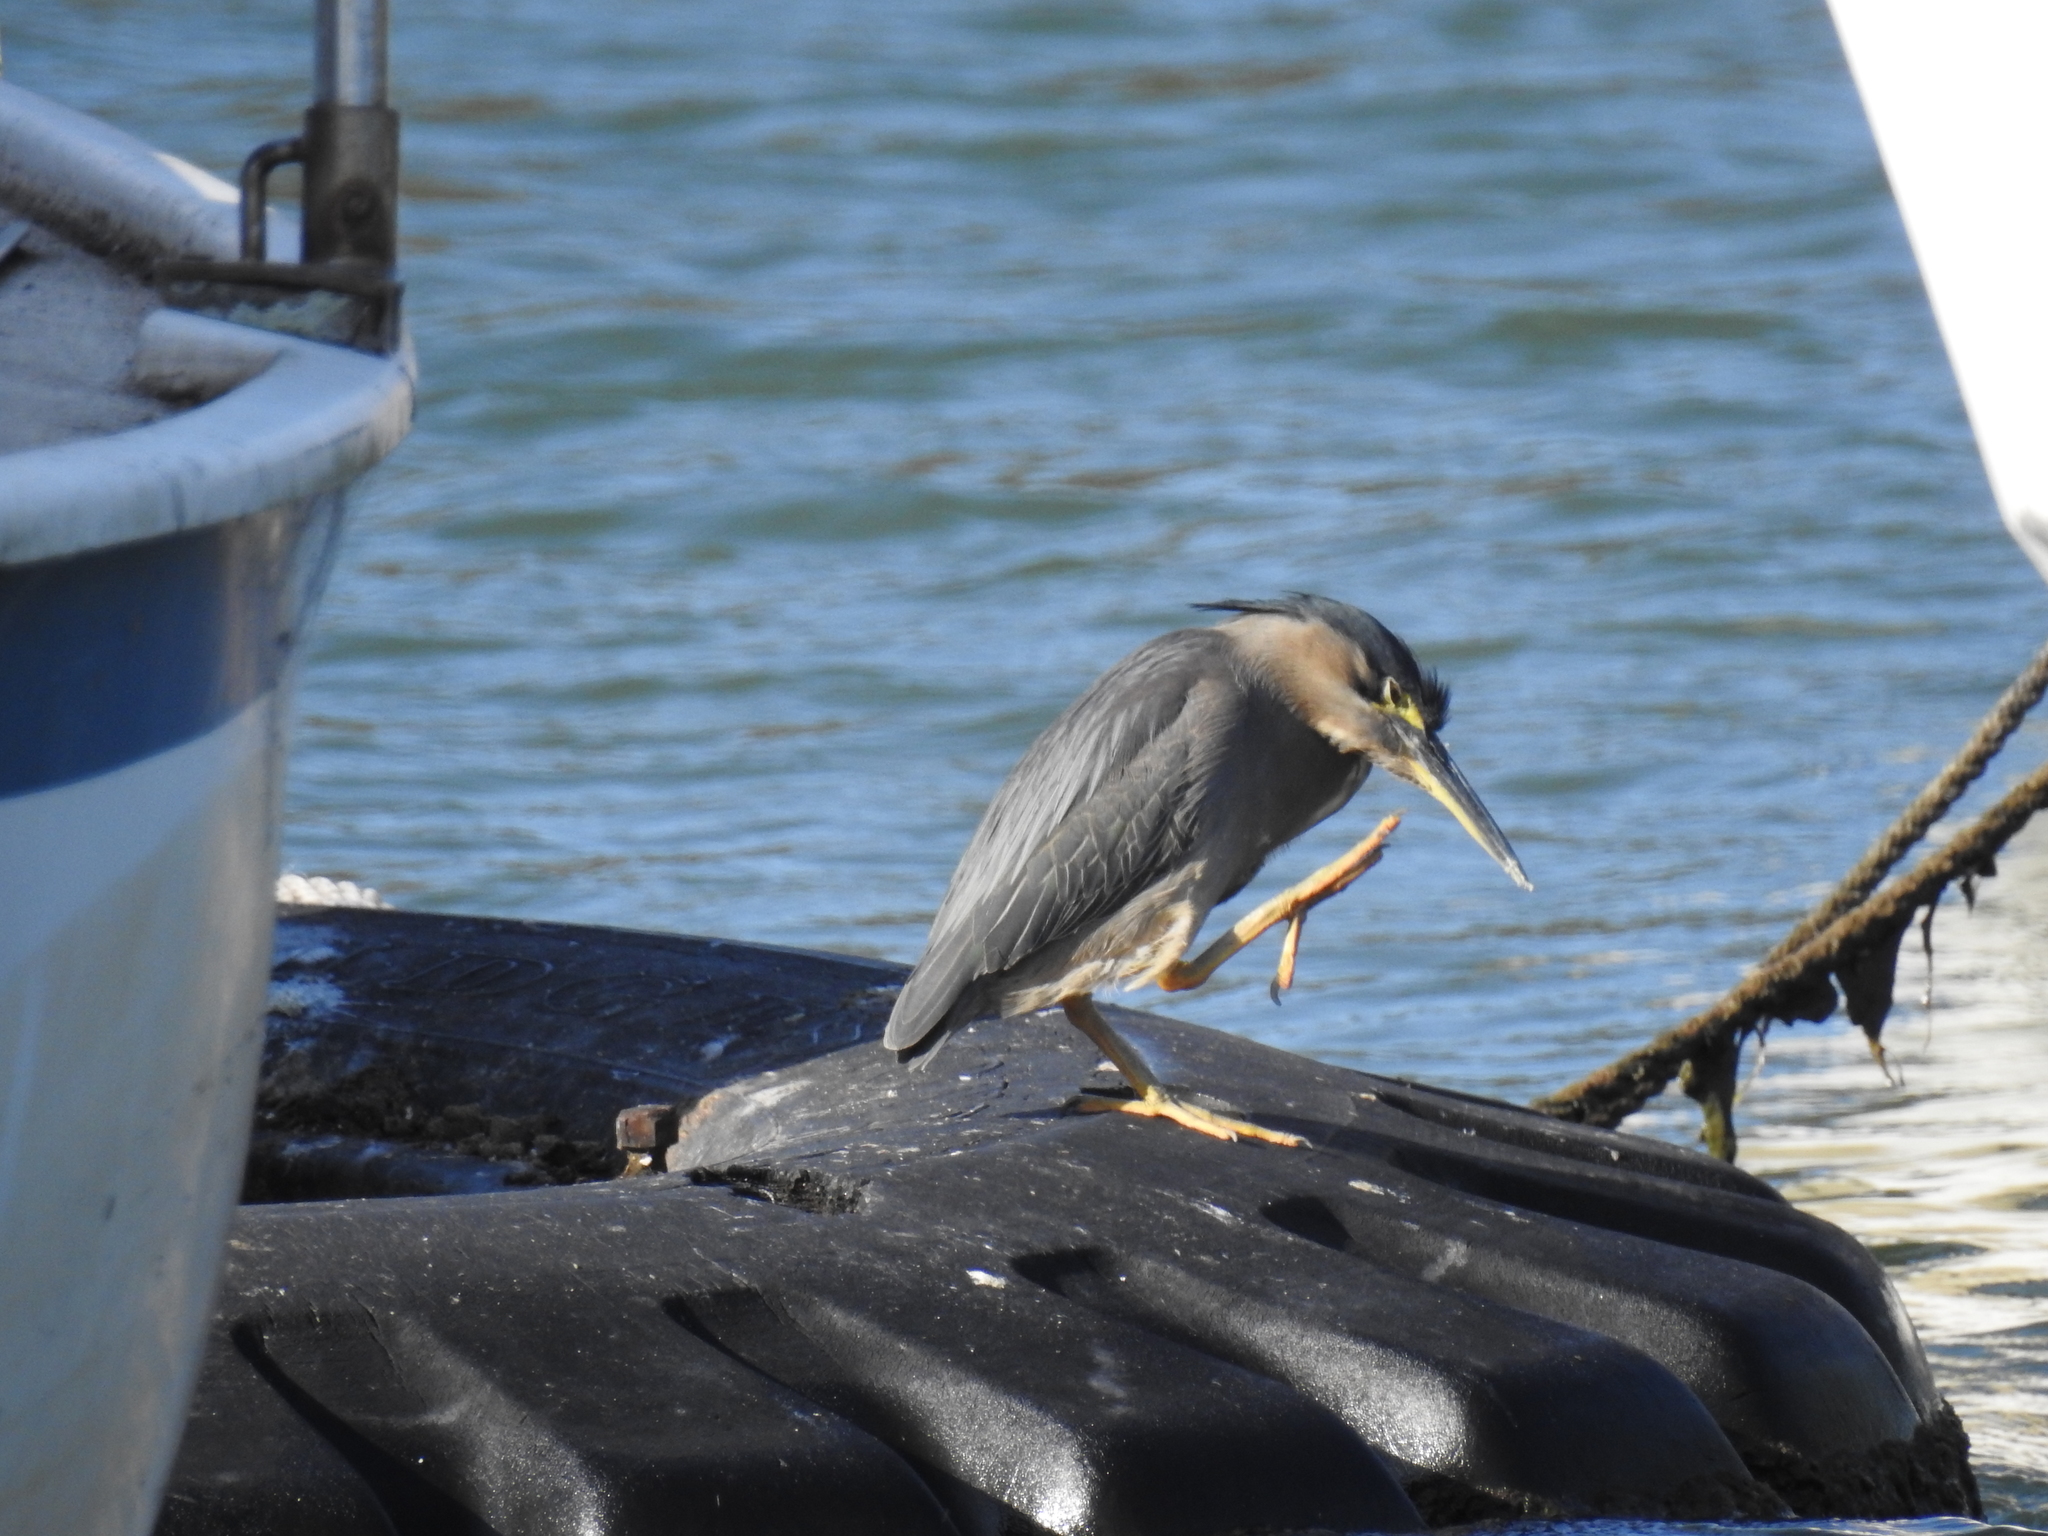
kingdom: Animalia
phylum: Chordata
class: Aves
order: Pelecaniformes
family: Ardeidae
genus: Butorides
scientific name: Butorides striata
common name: Striated heron
